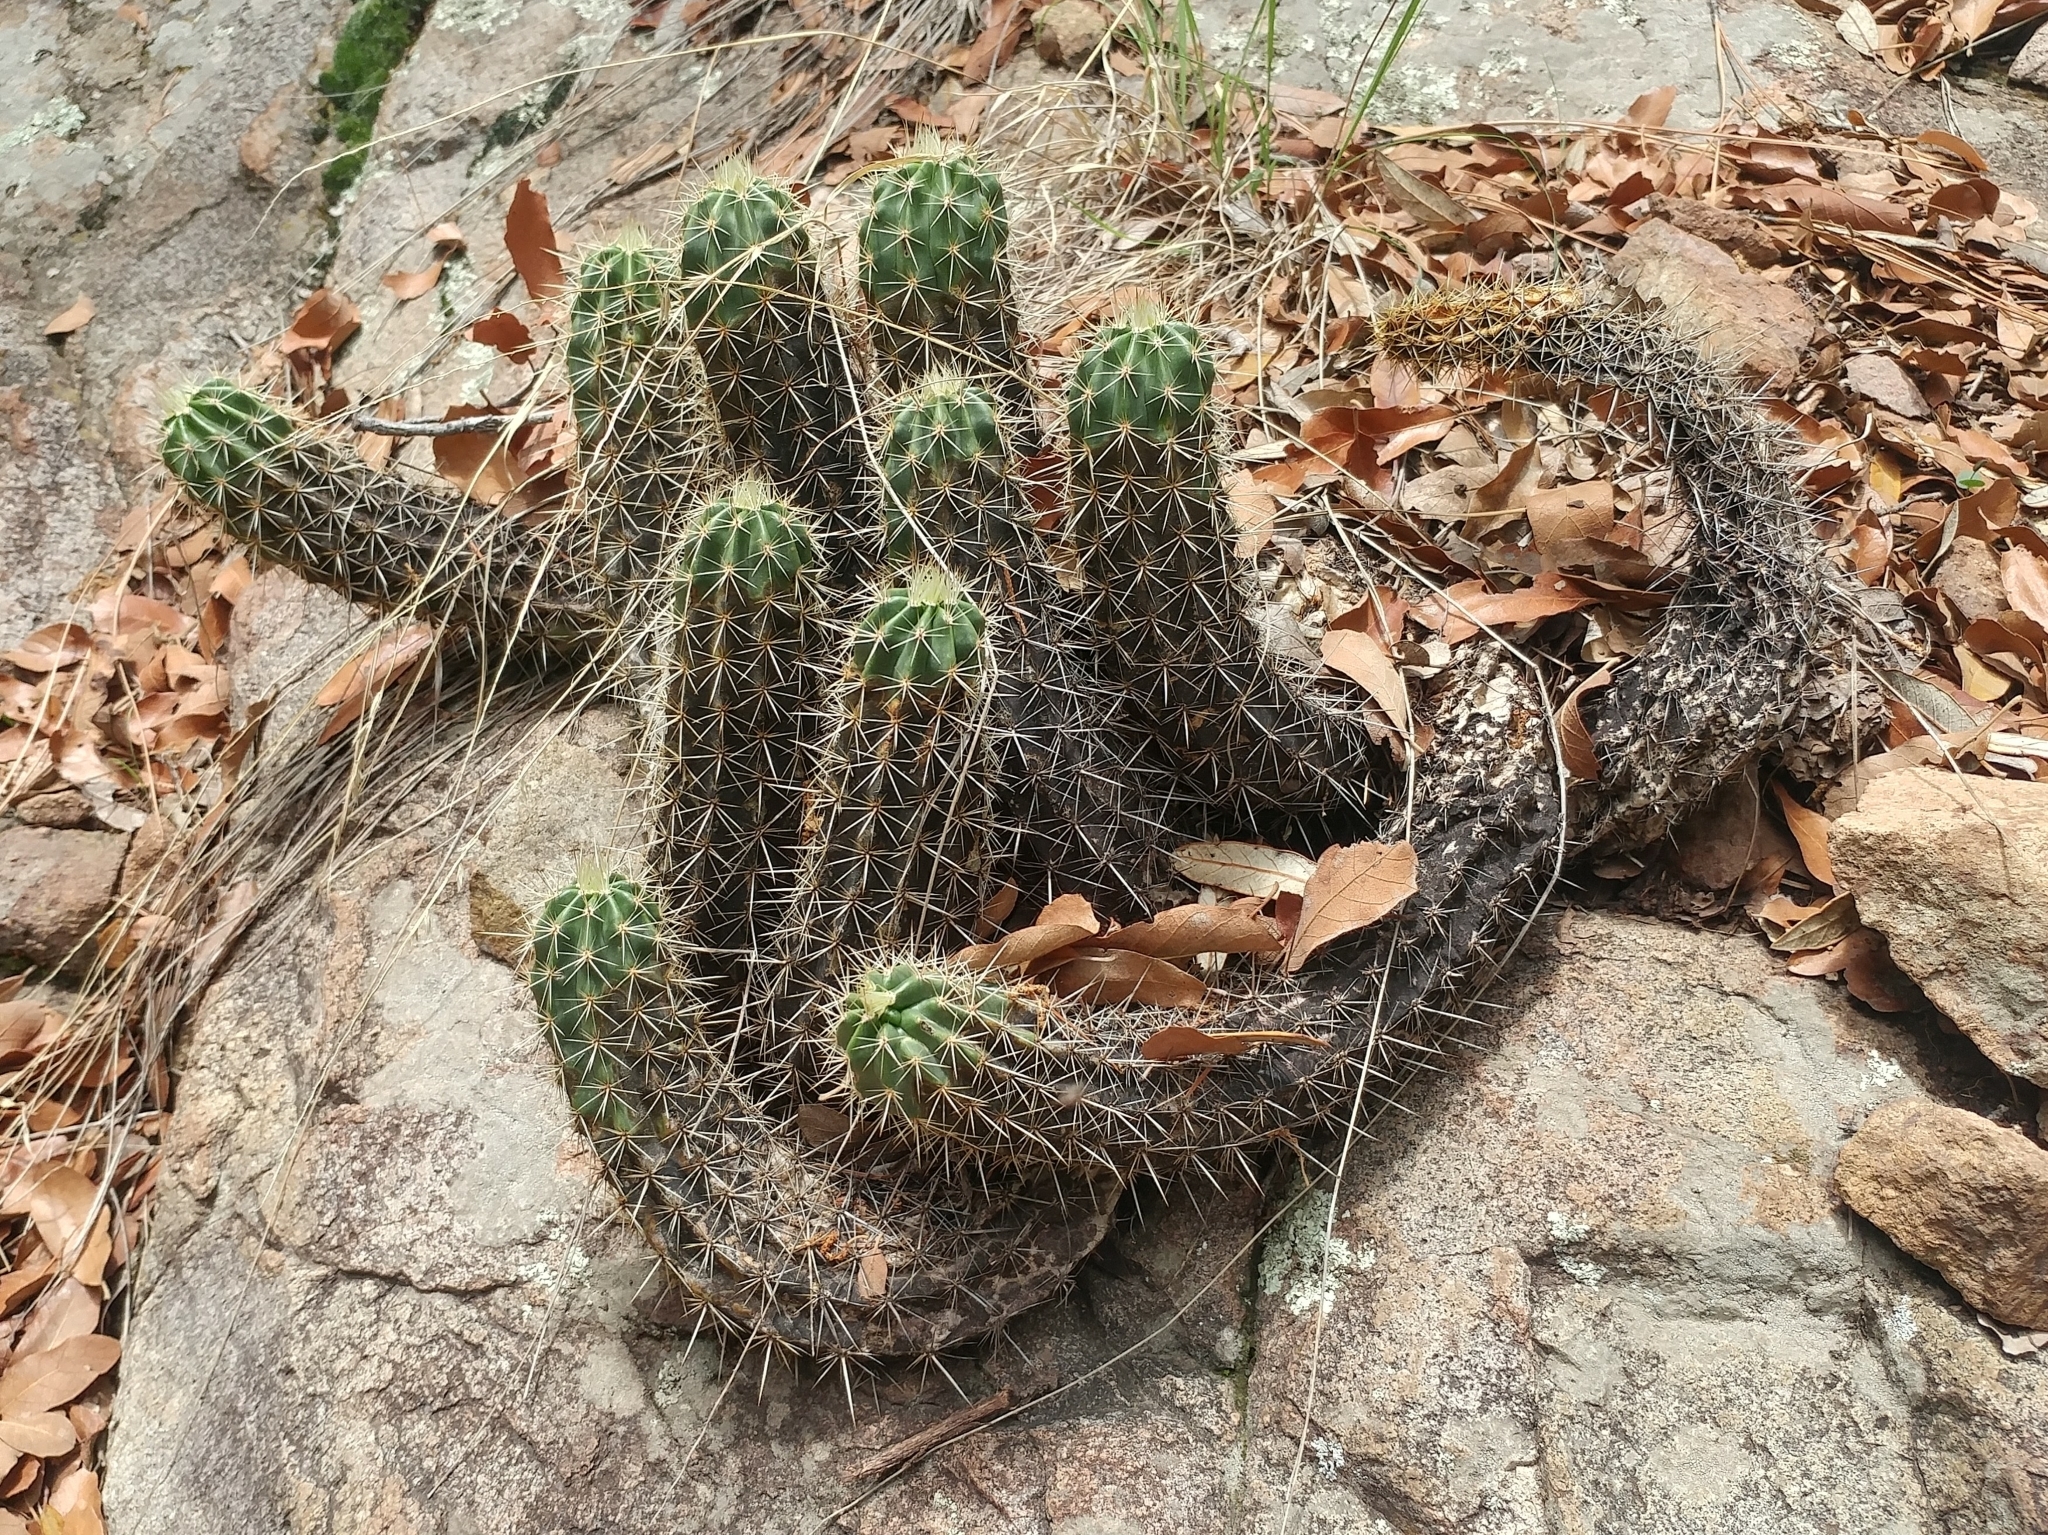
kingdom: Plantae
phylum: Tracheophyta
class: Magnoliopsida
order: Caryophyllales
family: Cactaceae
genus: Echinocereus
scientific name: Echinocereus coccineus
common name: Scarlet hedgehog cactus
